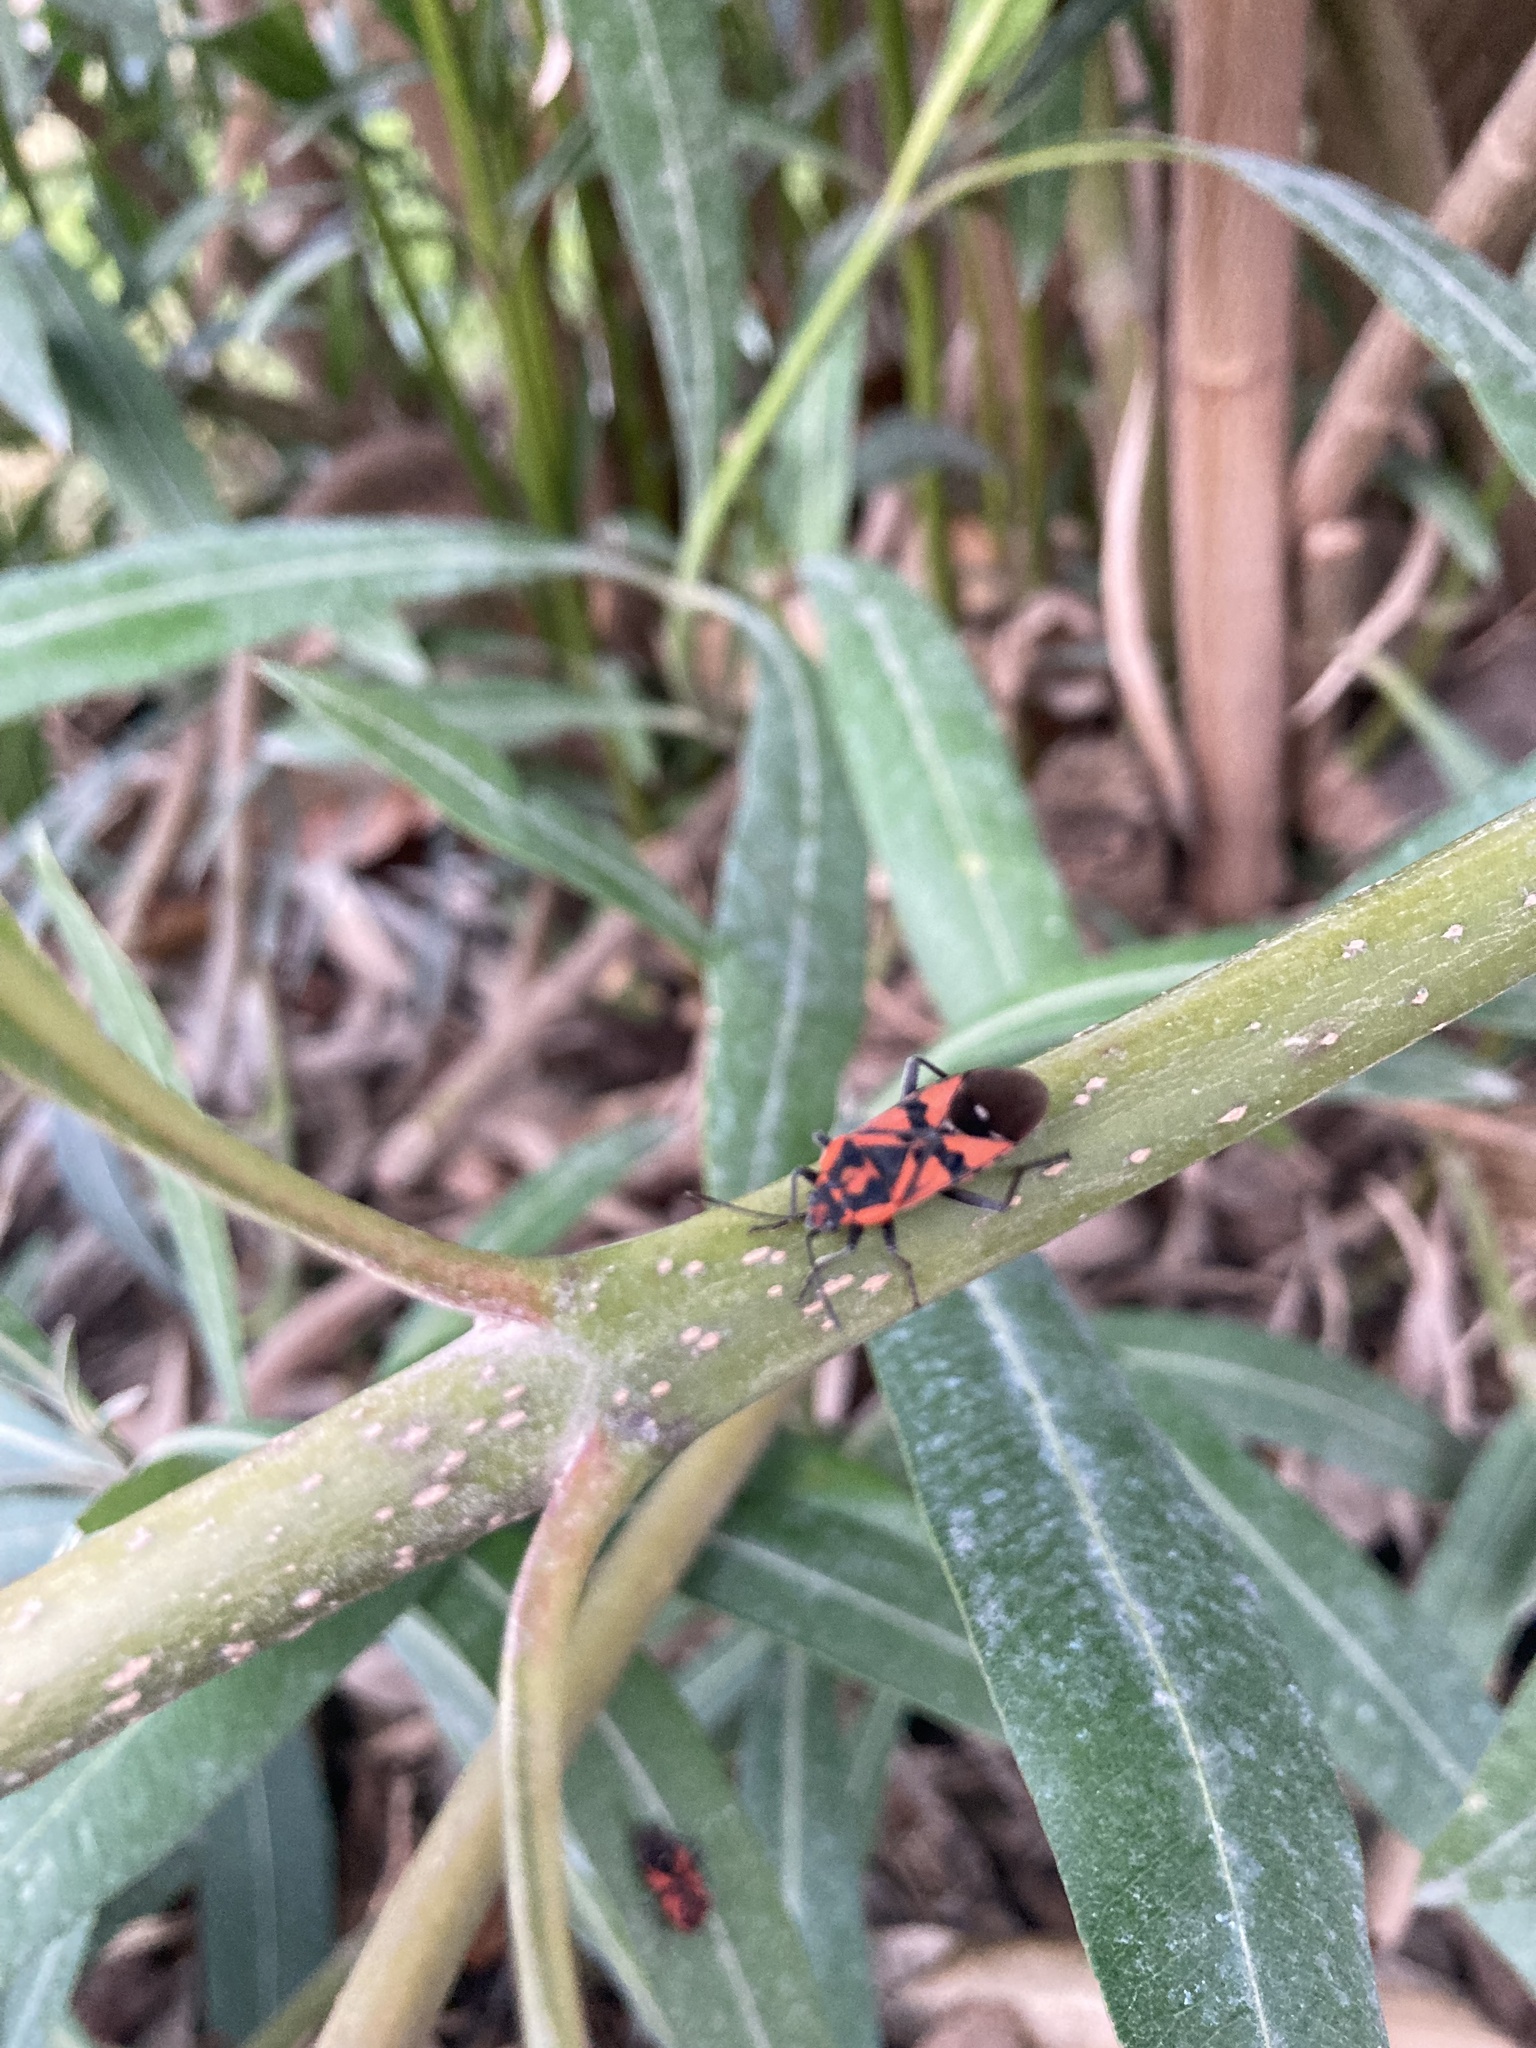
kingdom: Animalia
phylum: Arthropoda
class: Insecta
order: Hemiptera
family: Lygaeidae
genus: Spilostethus
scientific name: Spilostethus pandurus
